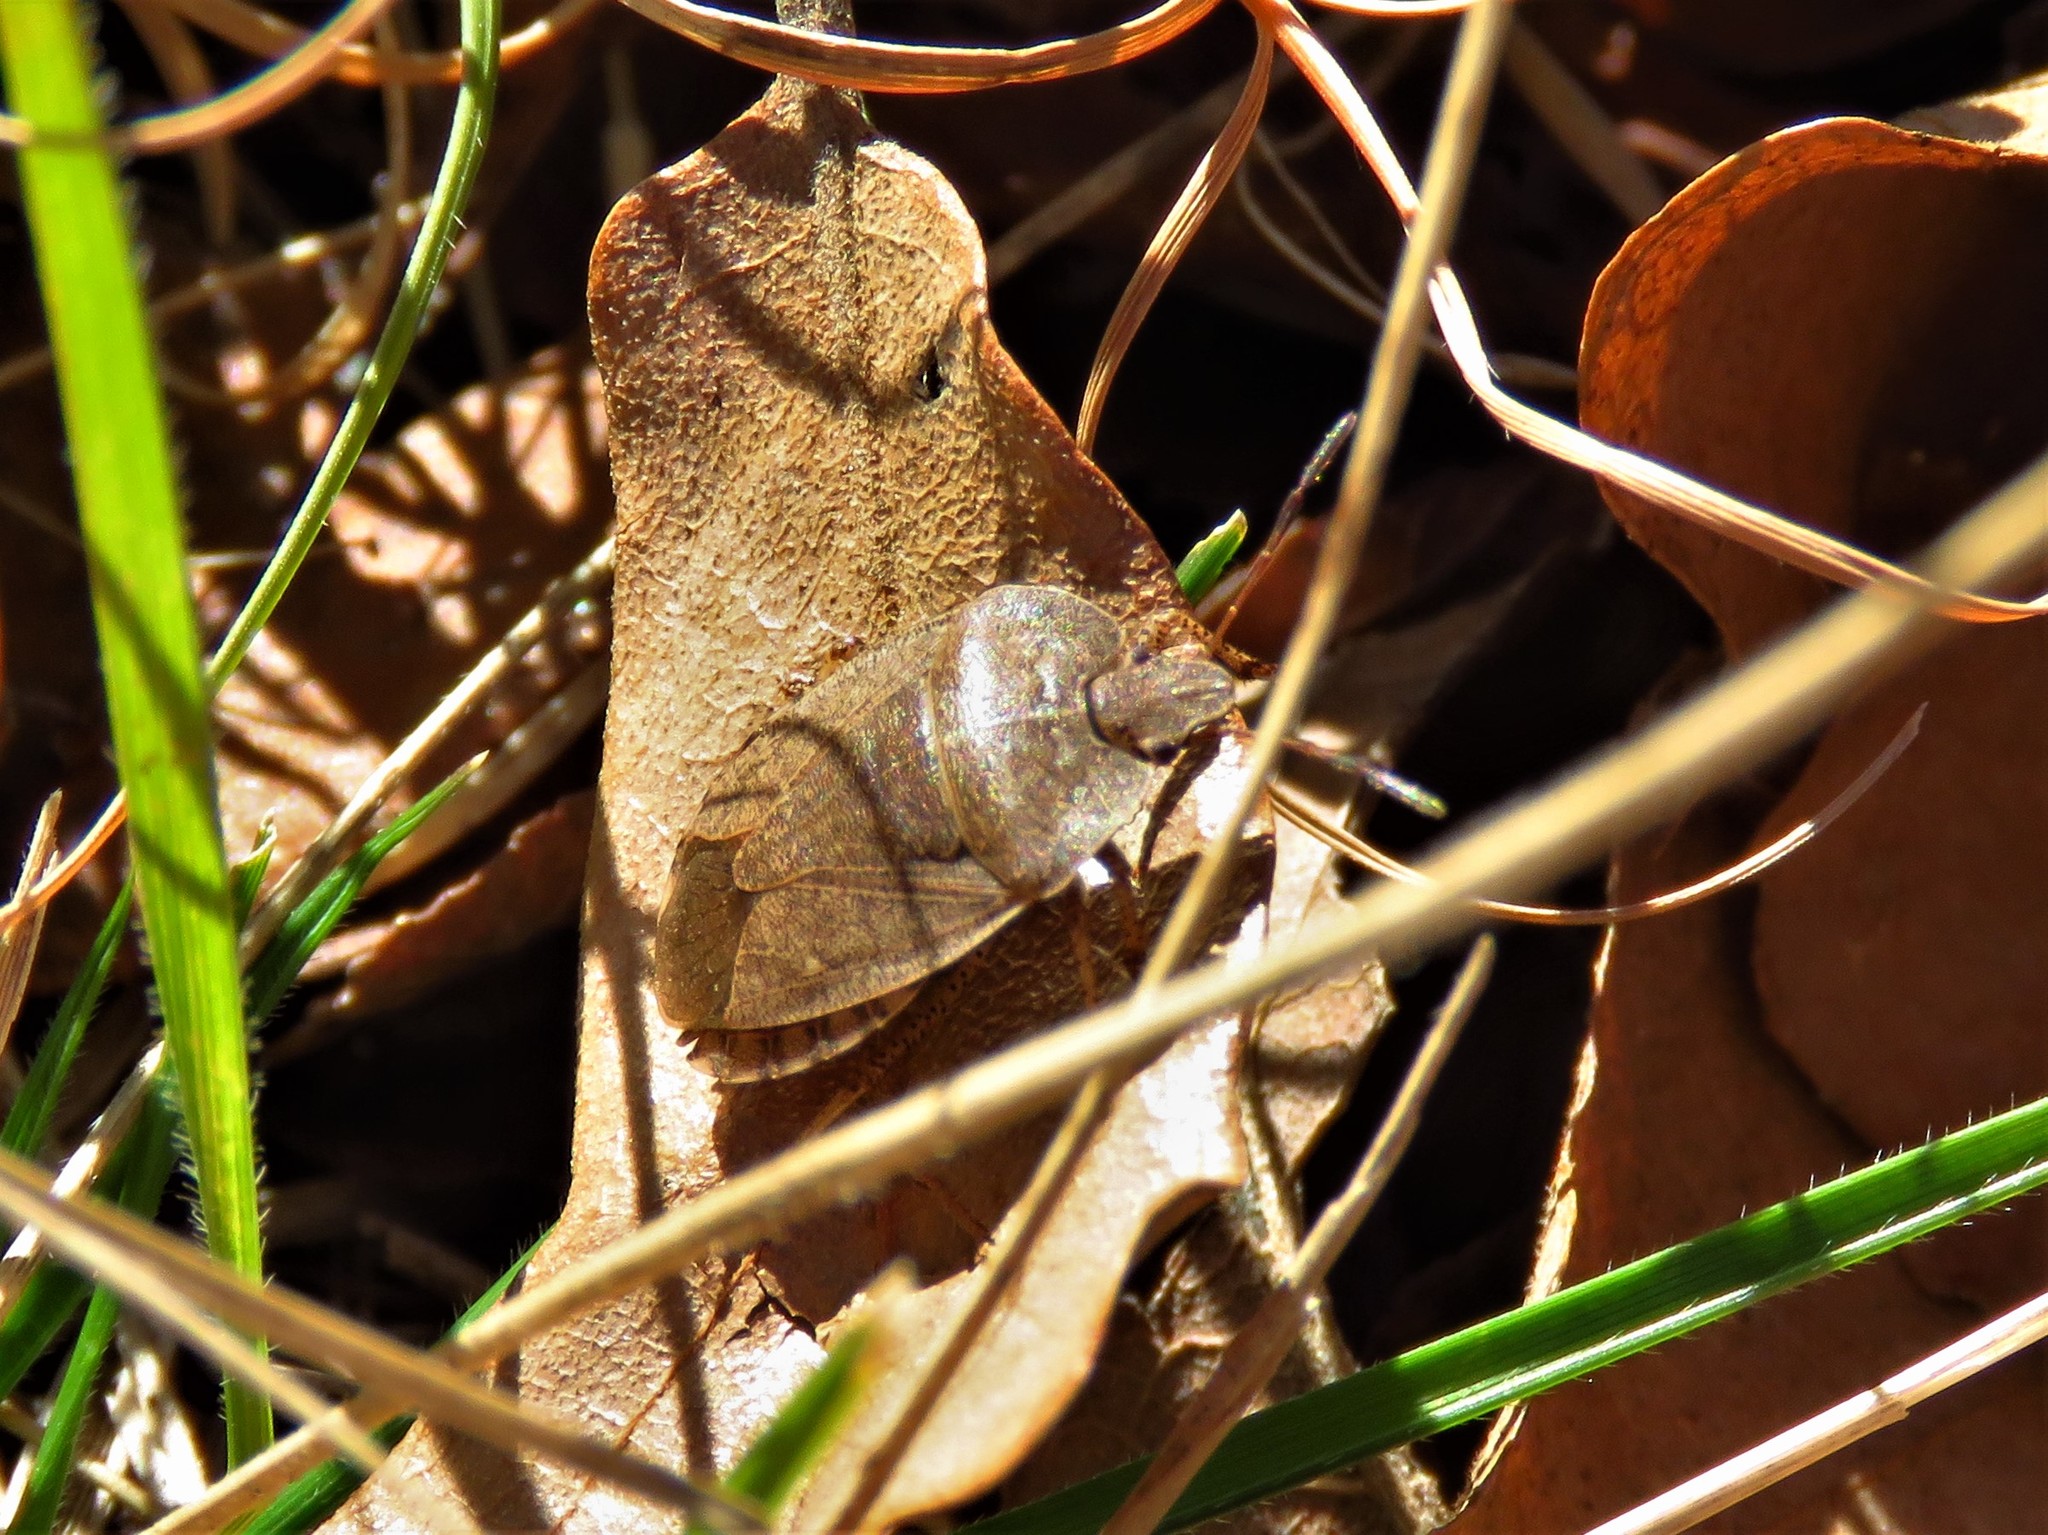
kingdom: Animalia
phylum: Arthropoda
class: Insecta
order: Hemiptera
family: Pentatomidae
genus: Menecles
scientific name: Menecles insertus
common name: Elf shoe stink bug
